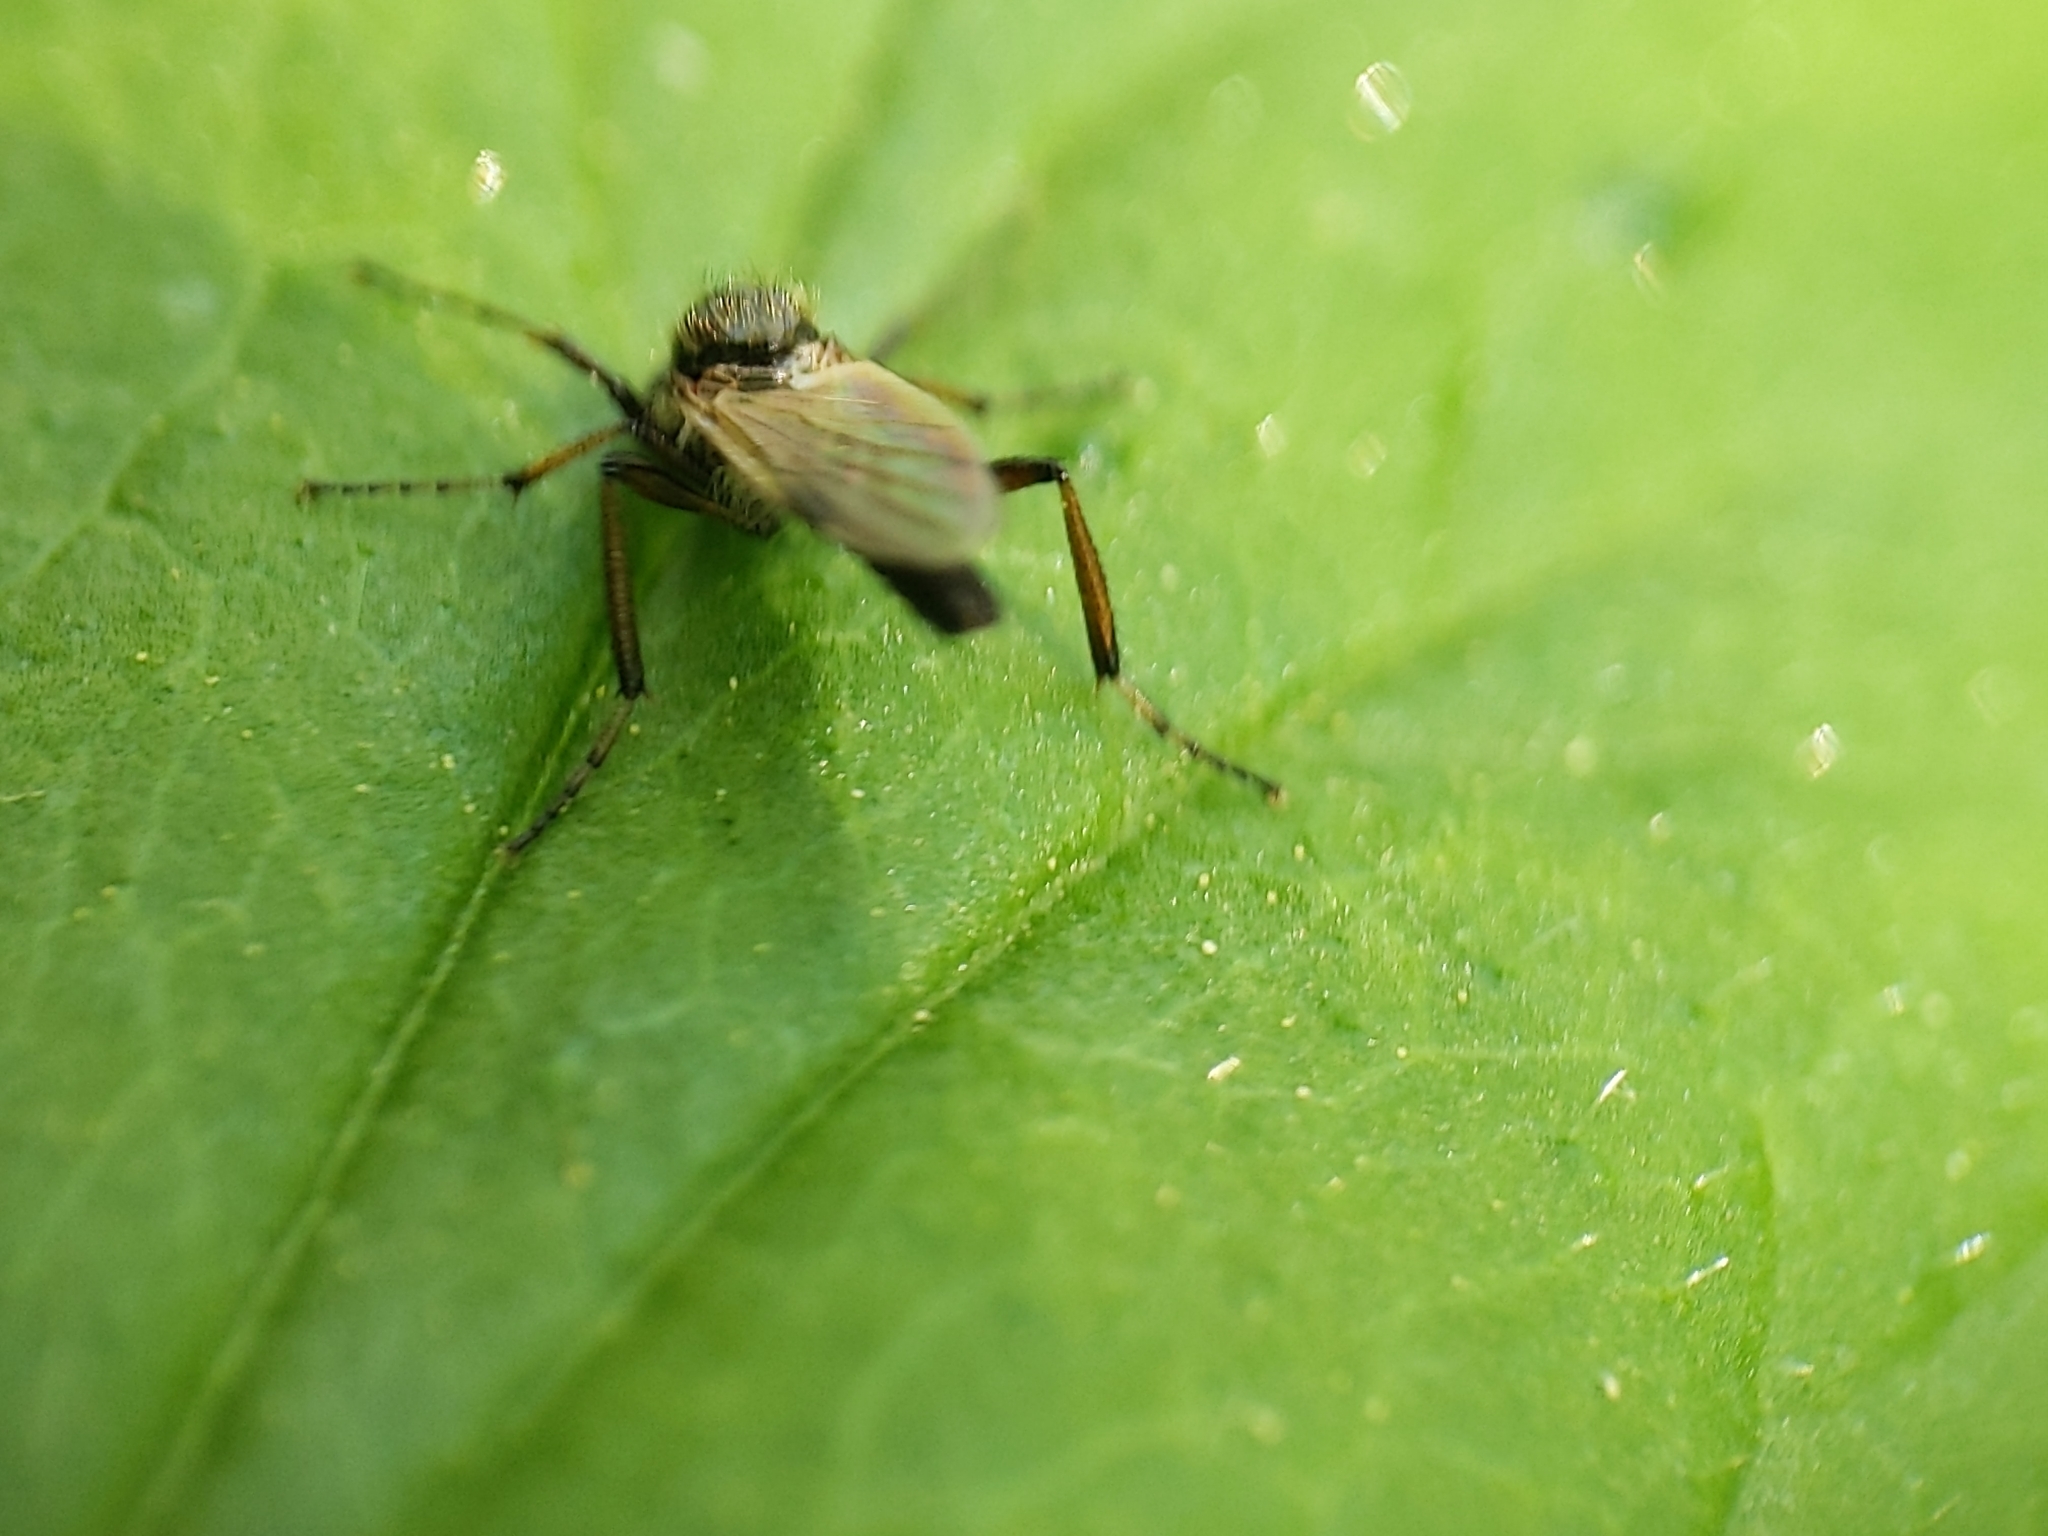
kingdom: Animalia
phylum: Arthropoda
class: Insecta
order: Diptera
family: Bibionidae
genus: Bibio
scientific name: Bibio articulatus
